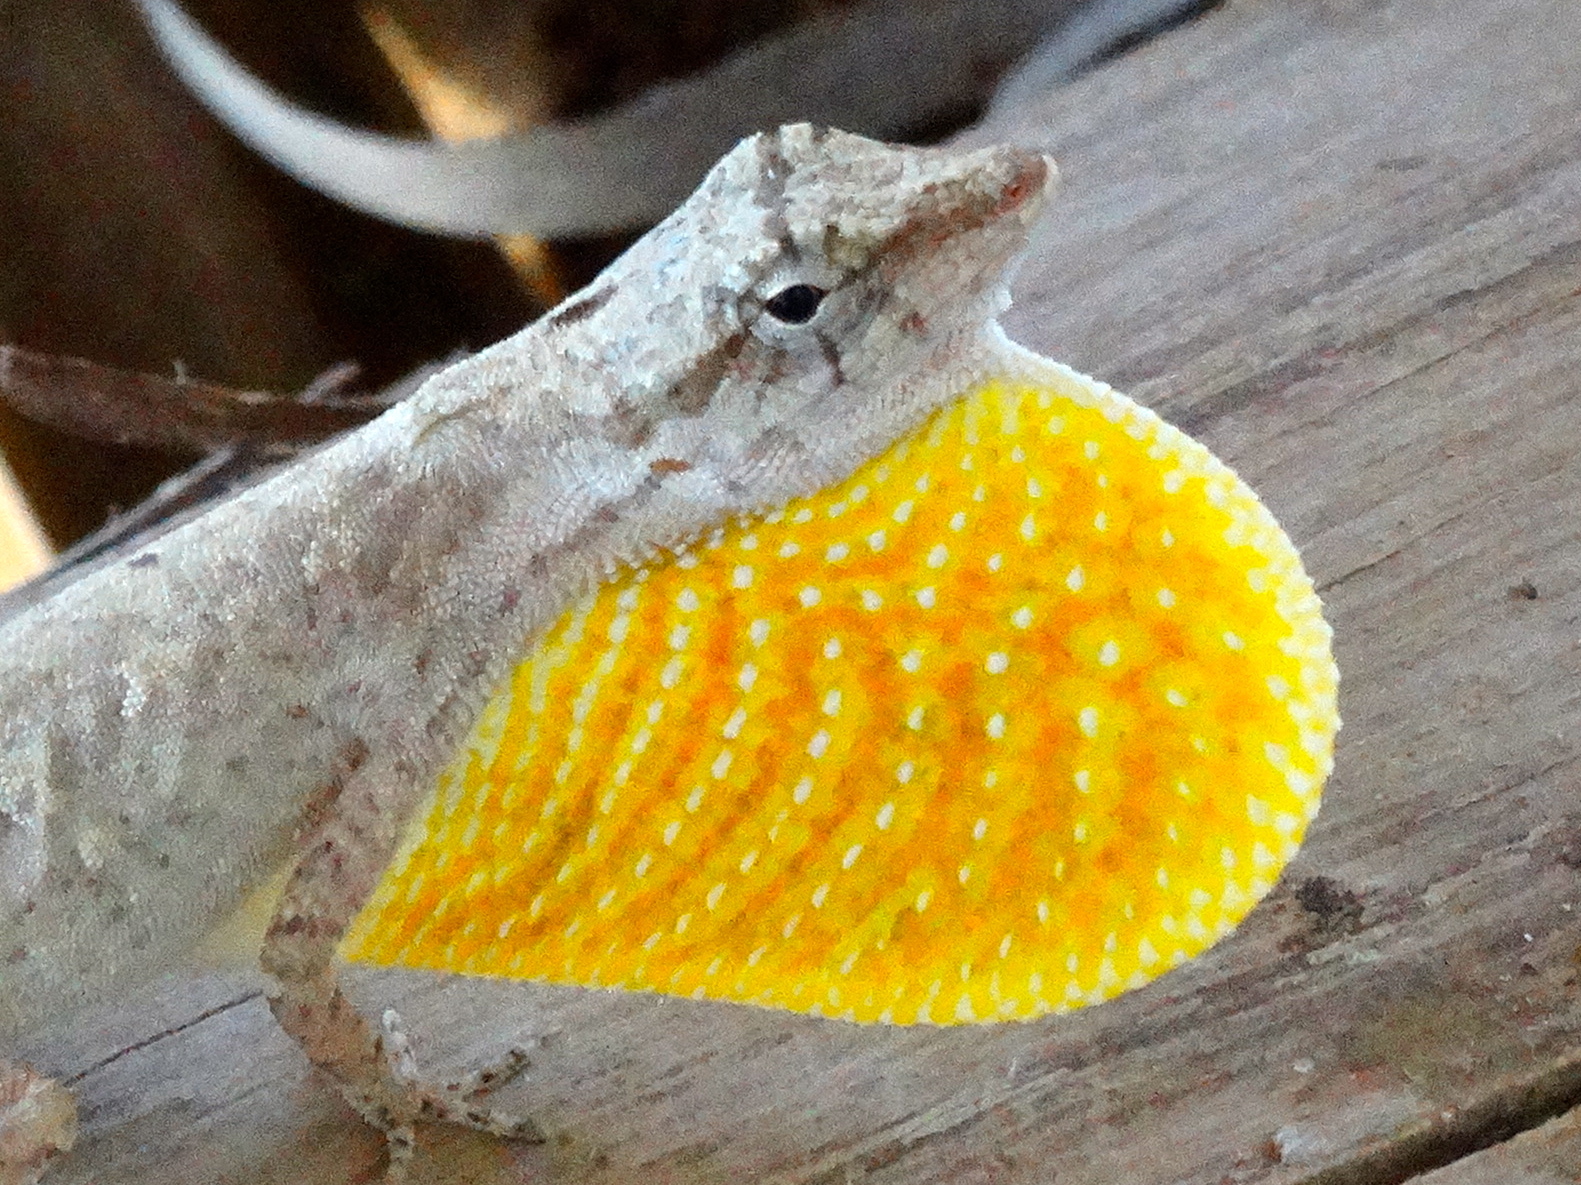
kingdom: Animalia
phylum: Chordata
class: Squamata
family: Dactyloidae
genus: Anolis
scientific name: Anolis nebulosus
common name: Clouded anole
